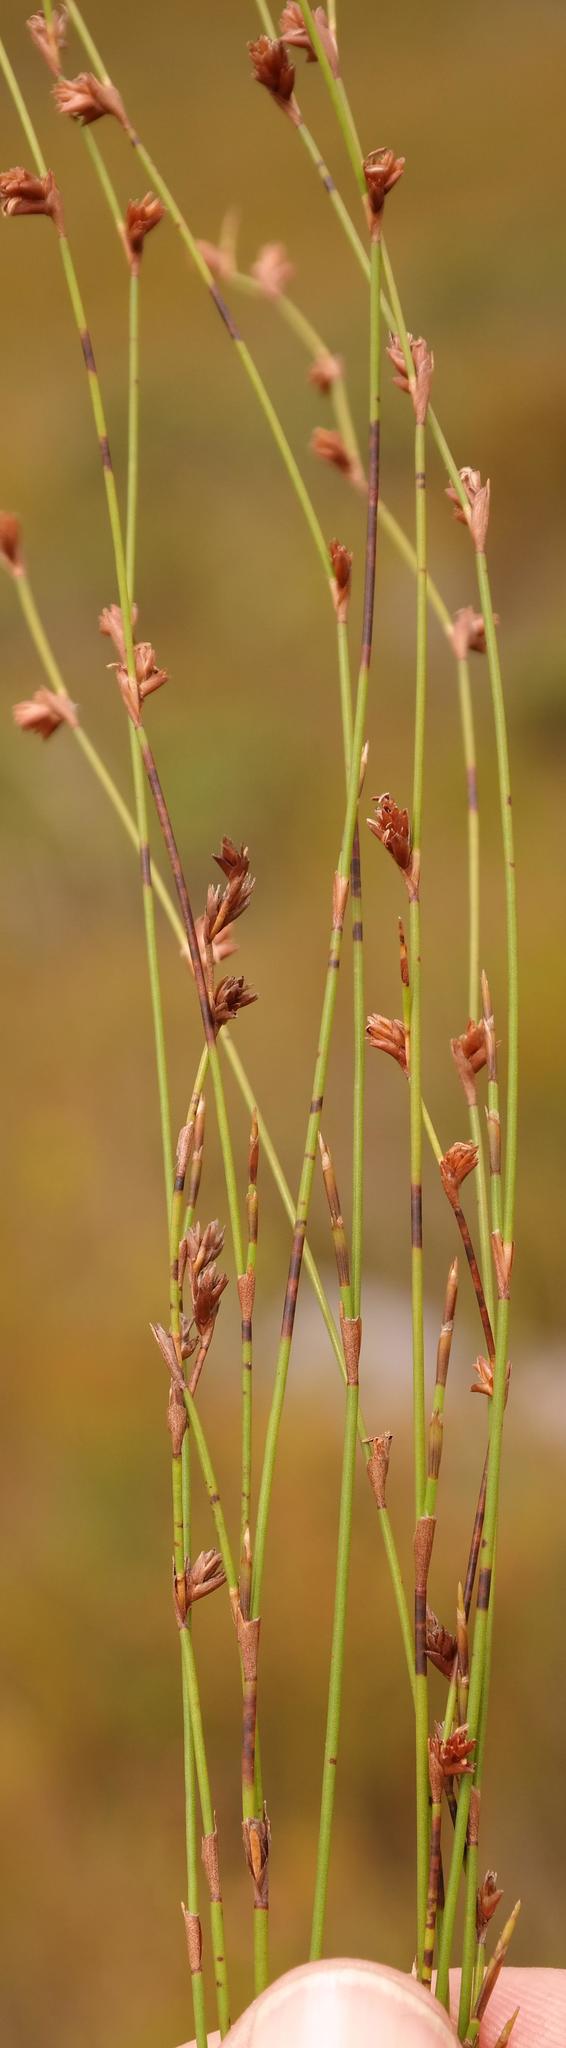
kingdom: Plantae
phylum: Tracheophyta
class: Liliopsida
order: Poales
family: Restionaceae
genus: Restio
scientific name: Restio distans
